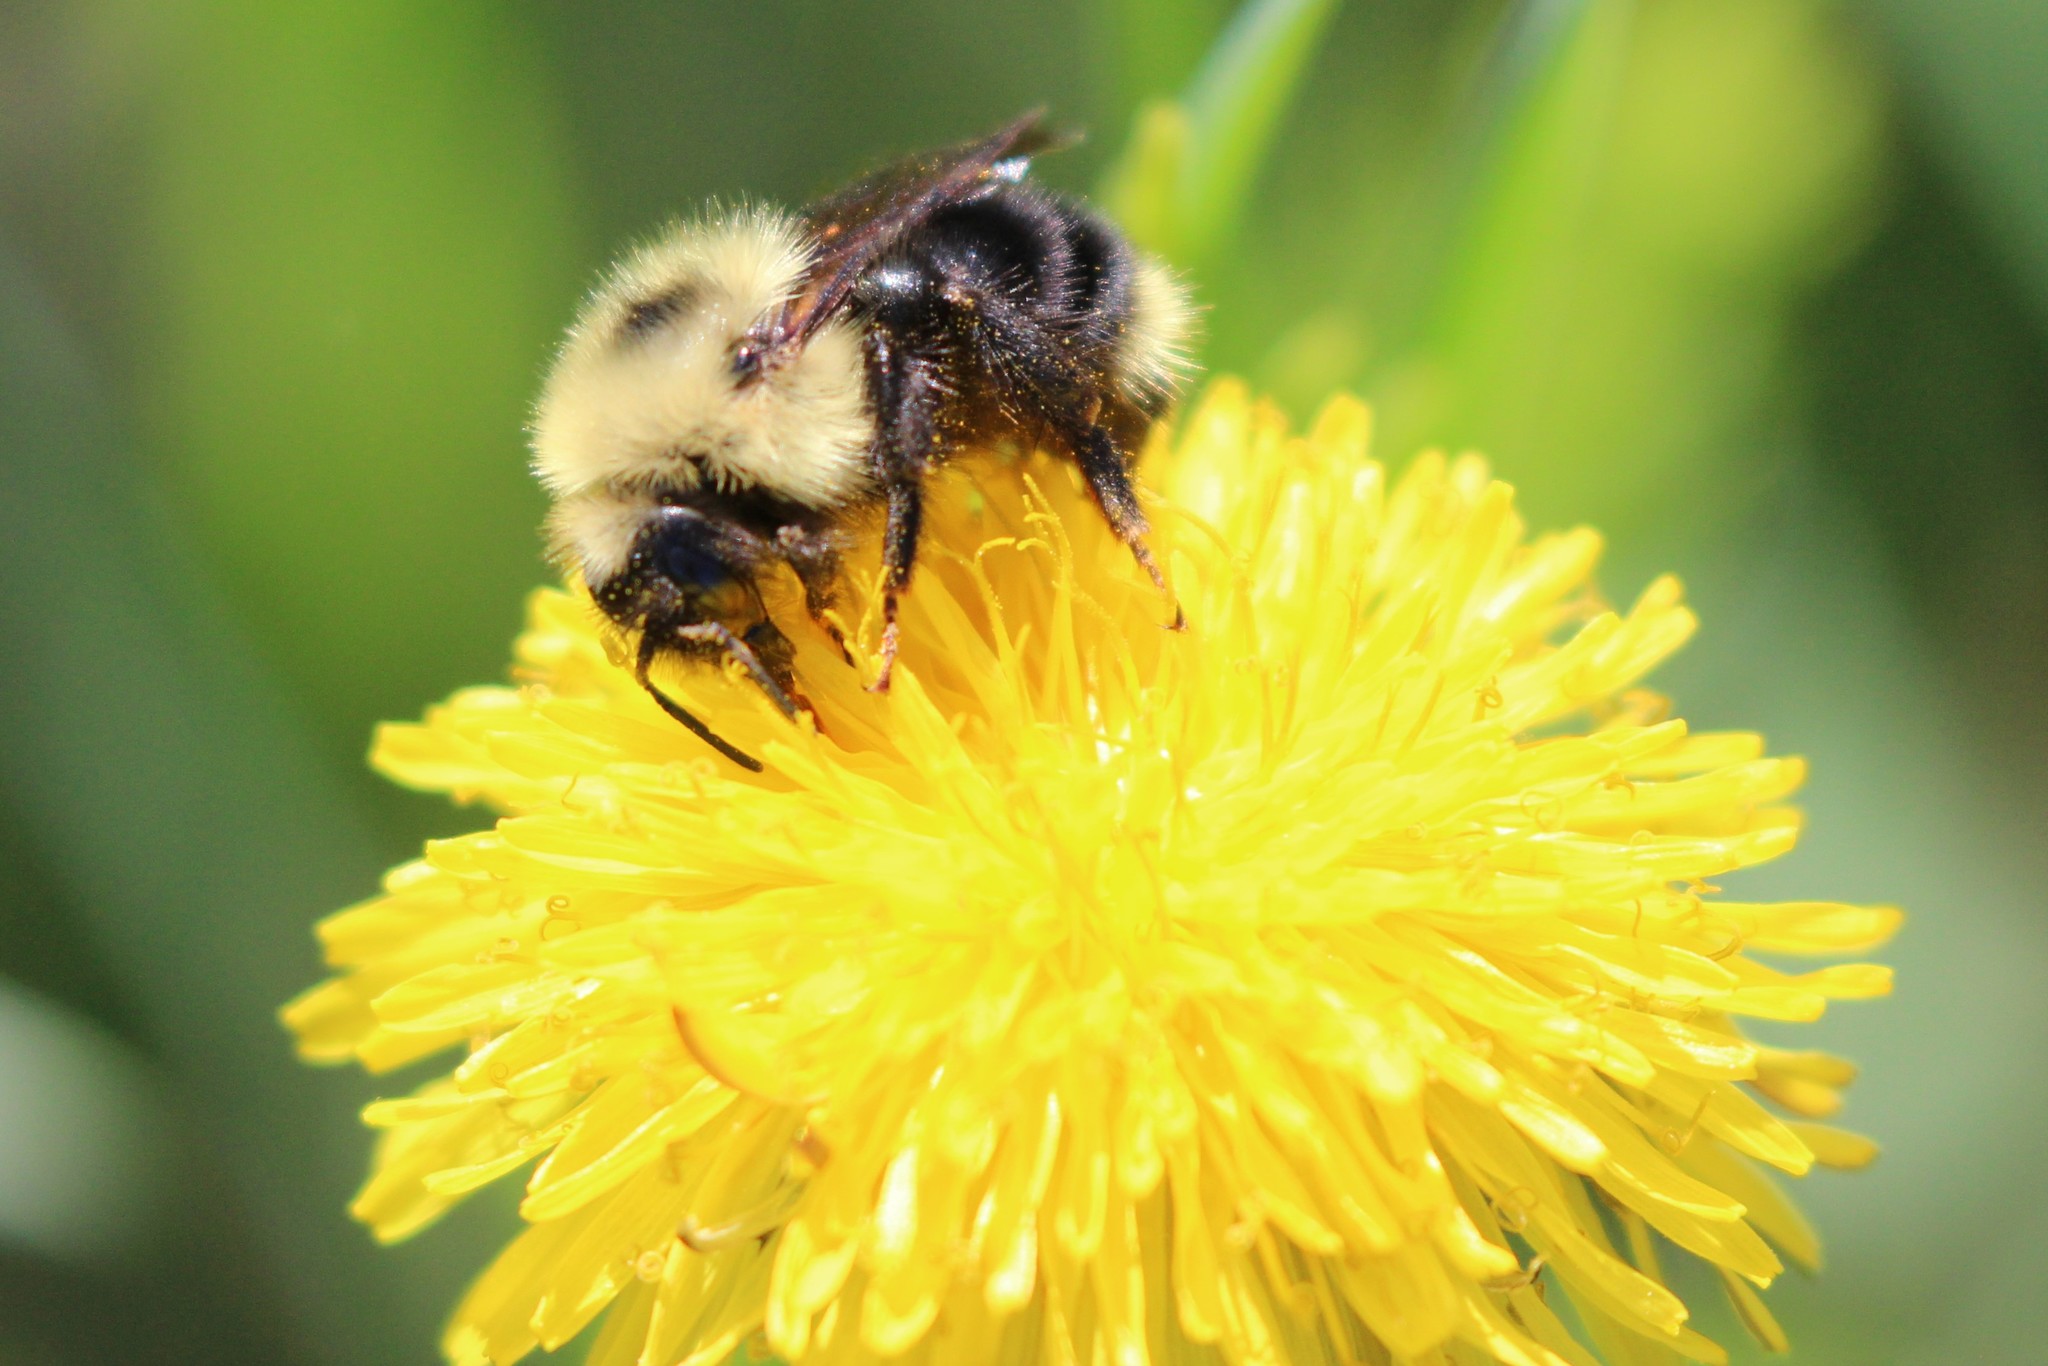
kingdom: Animalia
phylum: Arthropoda
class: Insecta
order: Hymenoptera
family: Apidae
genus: Bombus
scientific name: Bombus flavidus
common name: Fernald cuckoo bumble bee
